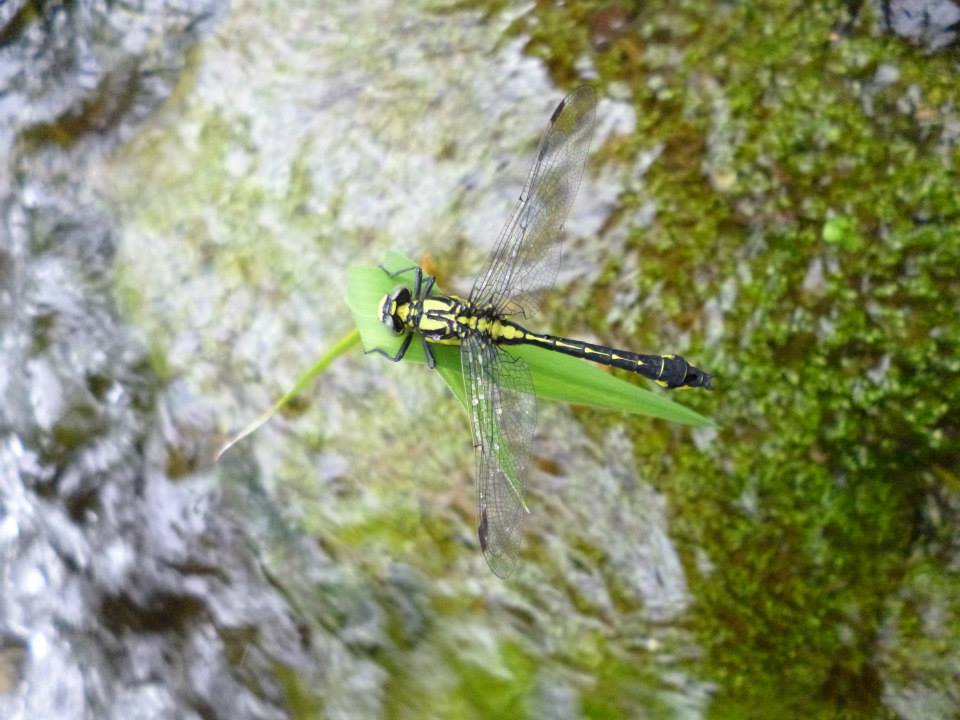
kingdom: Animalia
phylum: Arthropoda
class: Insecta
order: Odonata
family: Gomphidae
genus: Gomphus
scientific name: Gomphus vulgatissimus
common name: Club-tailed dragonfly
